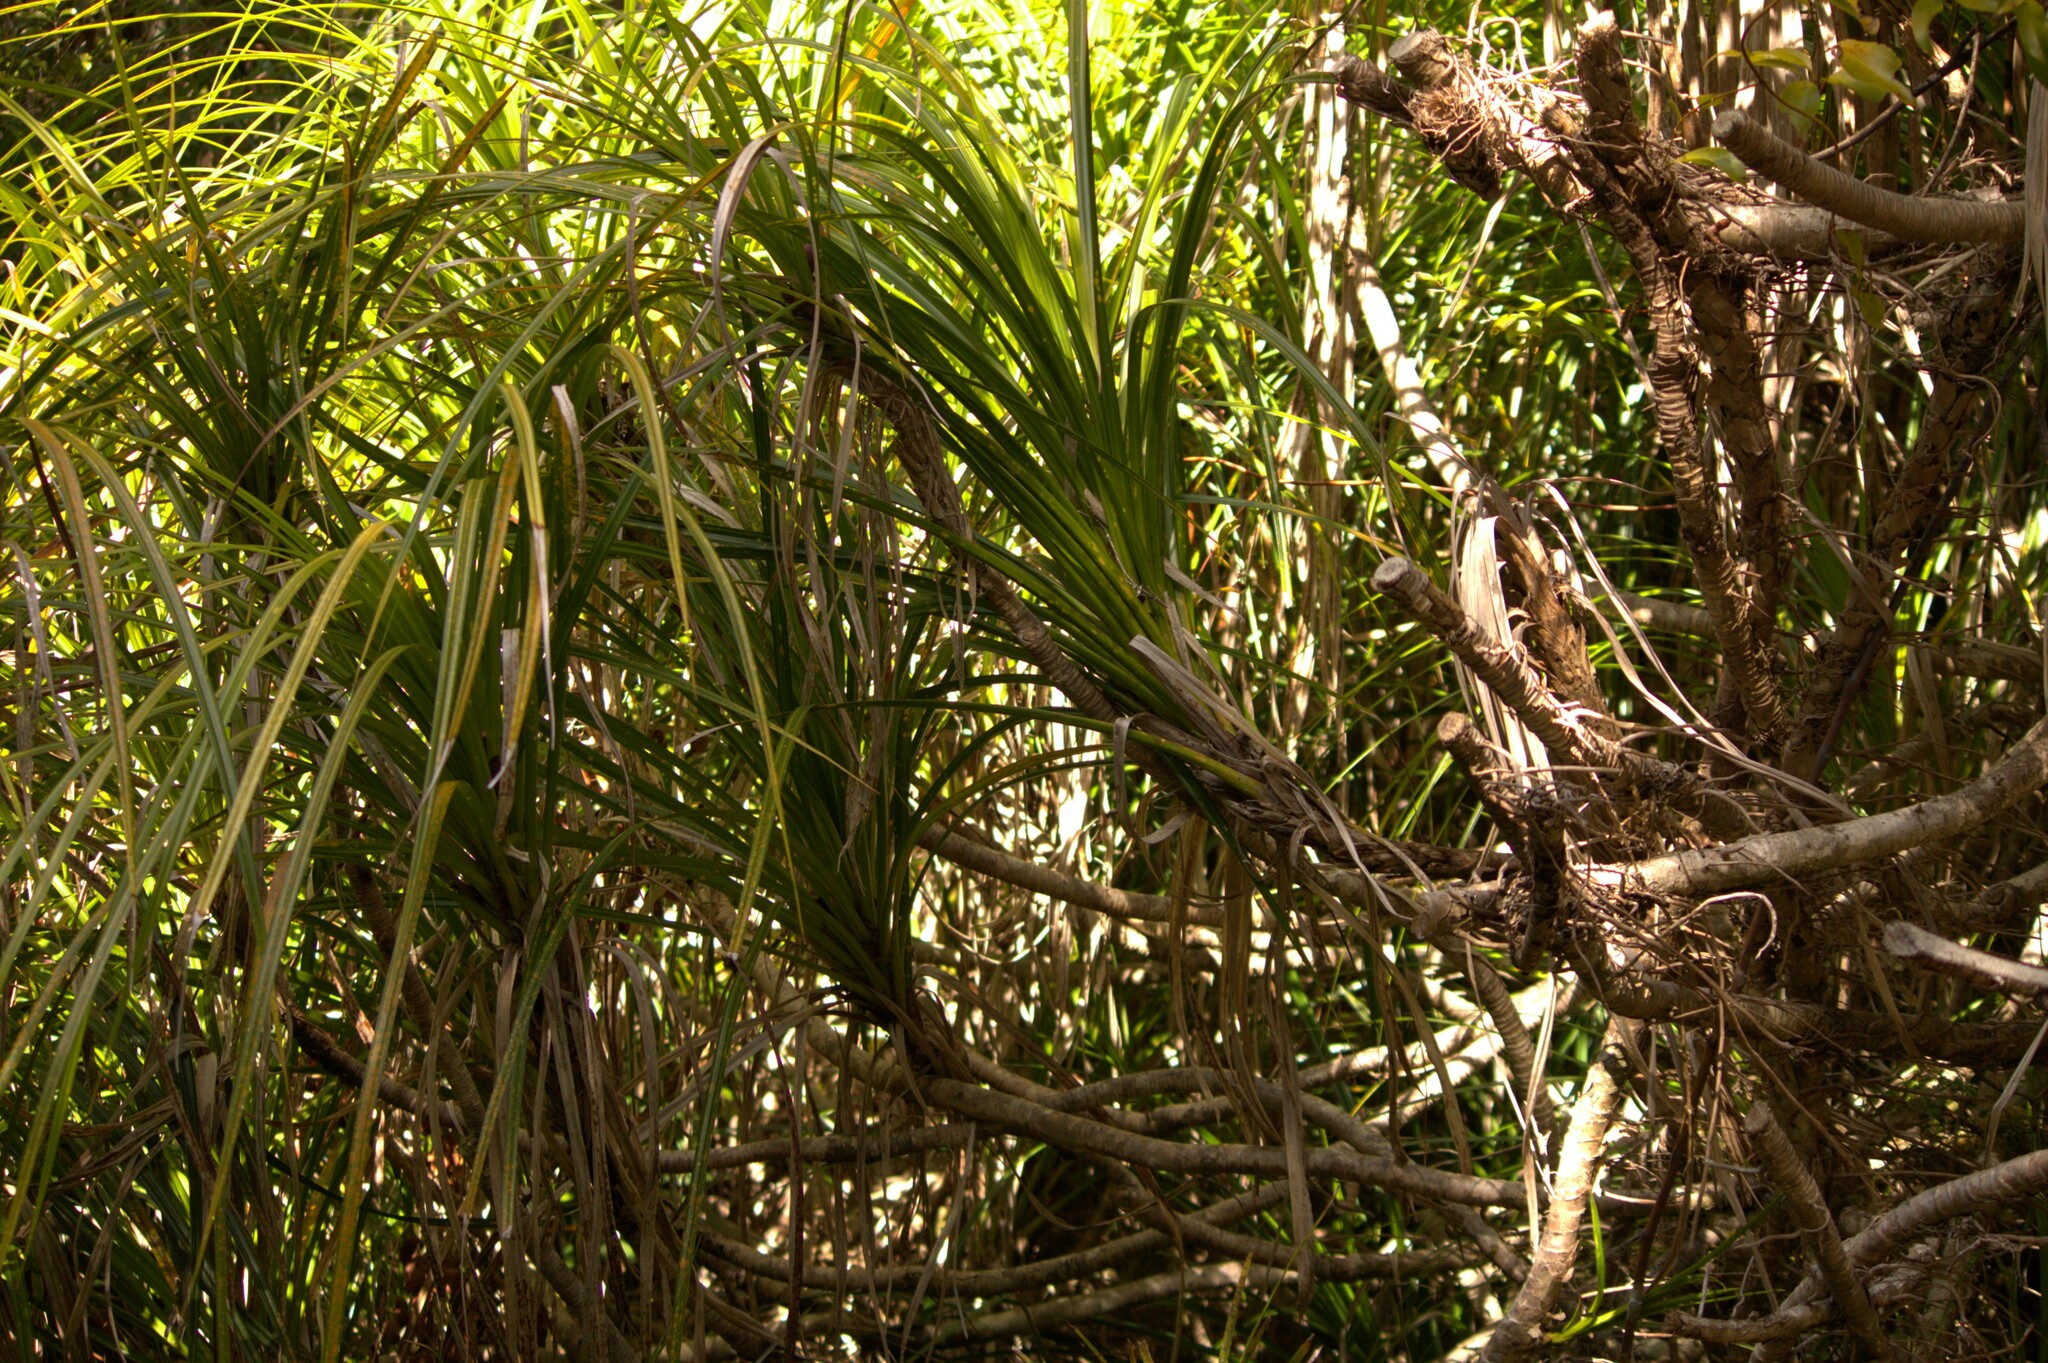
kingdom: Plantae
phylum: Tracheophyta
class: Liliopsida
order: Pandanales
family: Pandanaceae
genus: Freycinetia
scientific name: Freycinetia banksii
